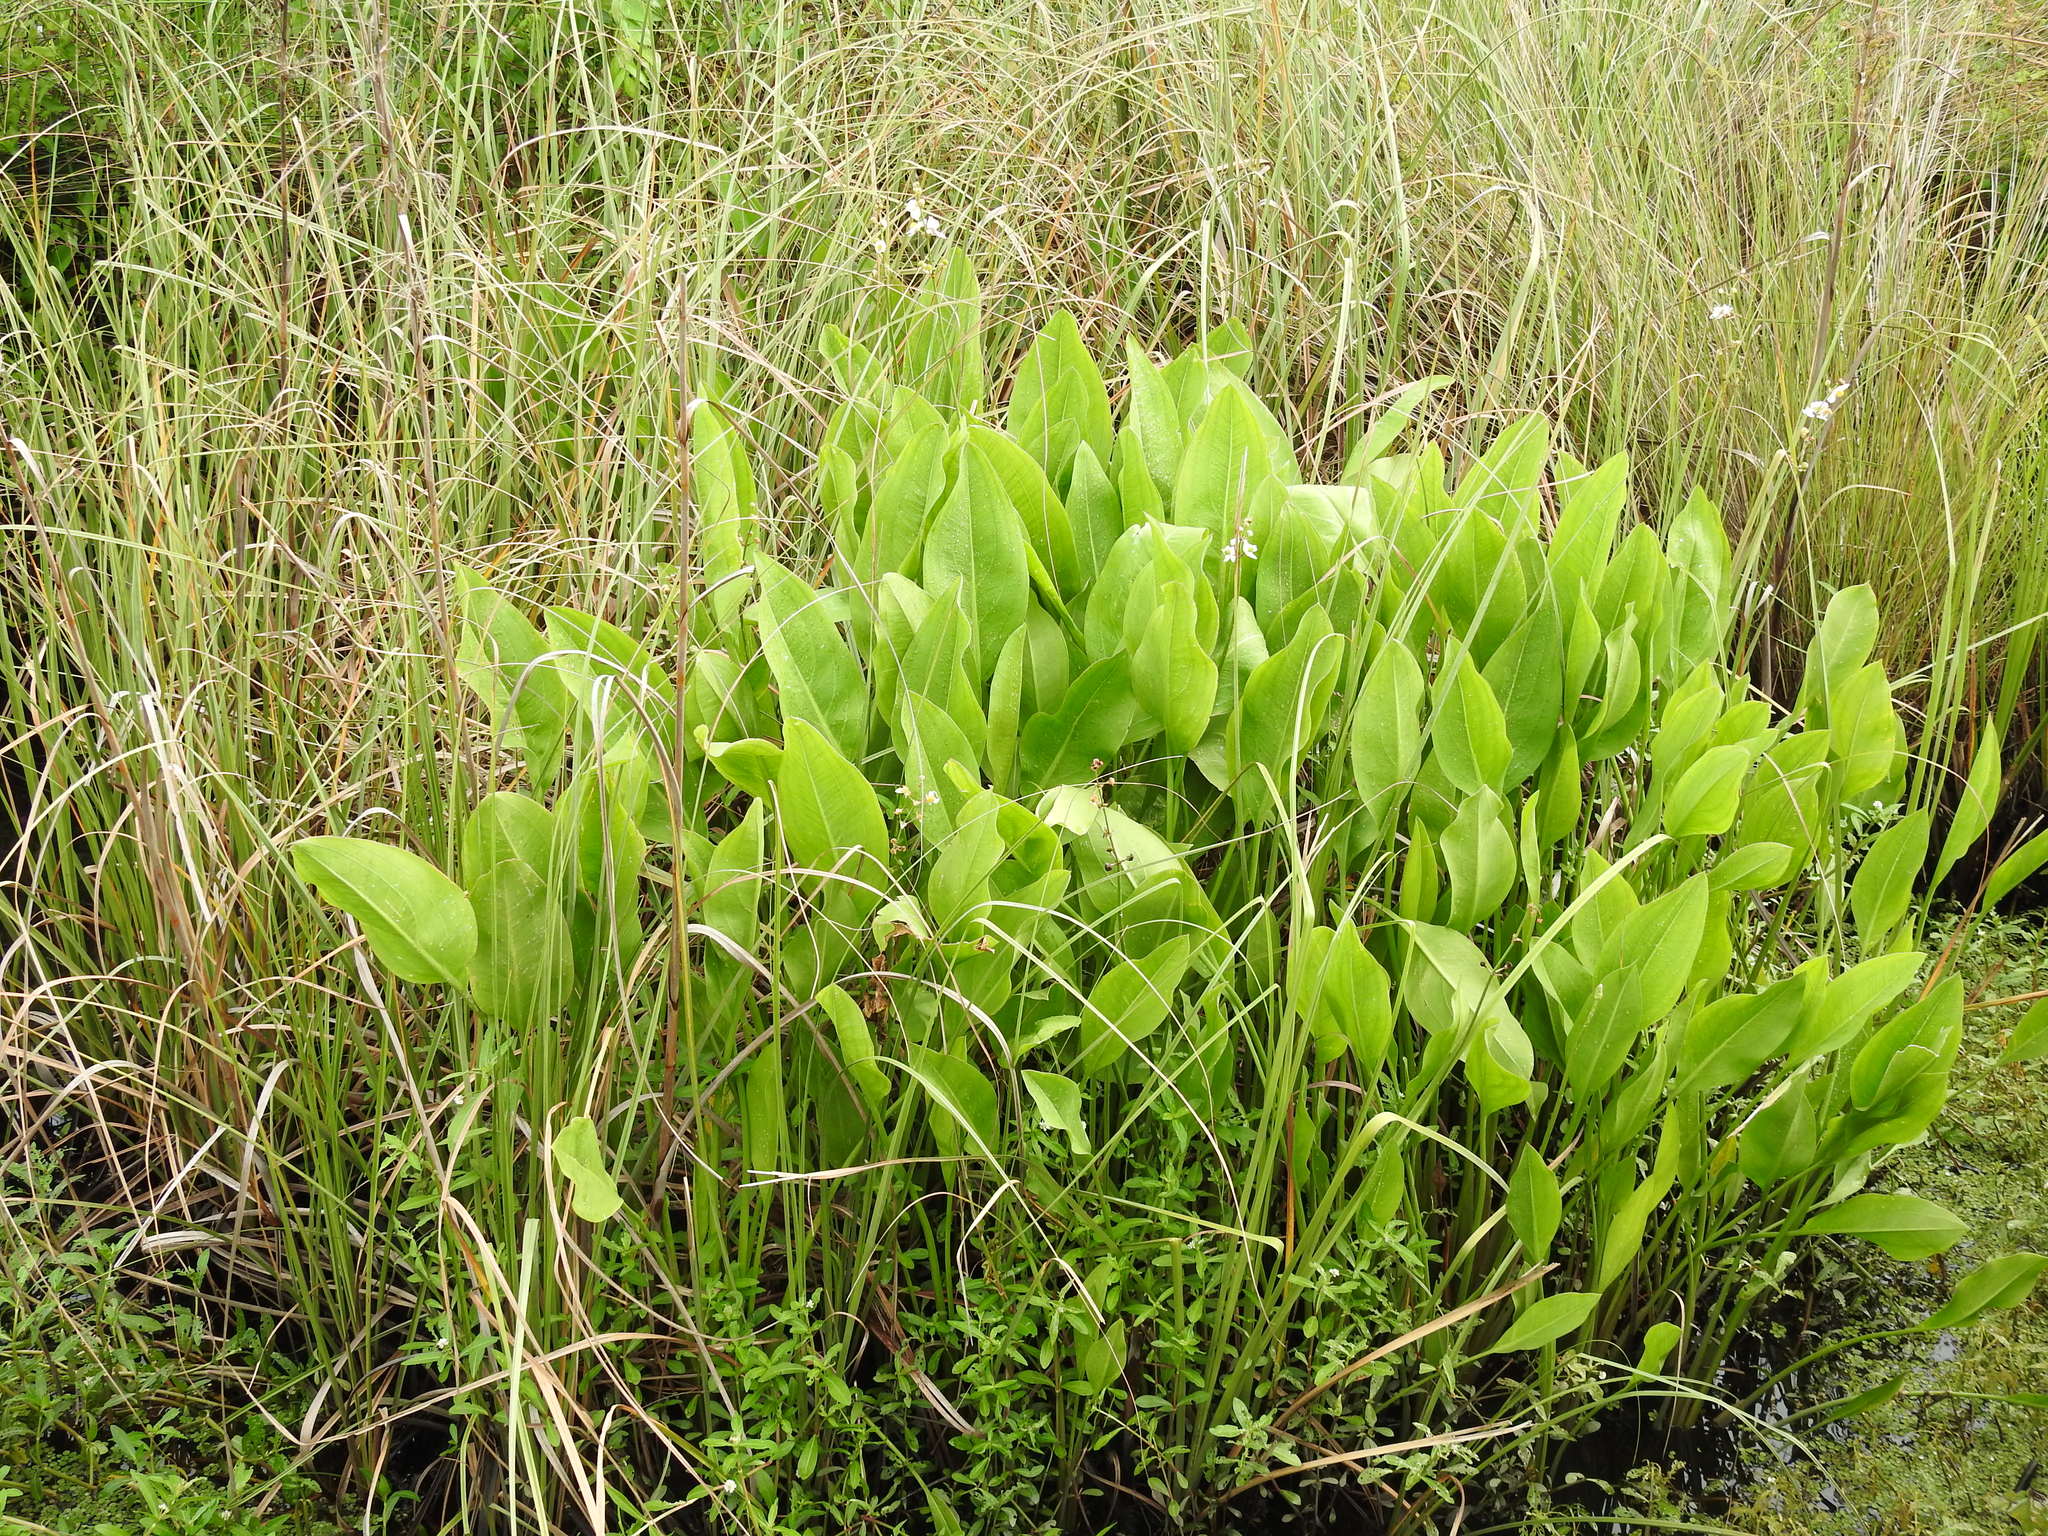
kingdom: Plantae
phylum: Tracheophyta
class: Liliopsida
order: Alismatales
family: Alismataceae
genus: Sagittaria
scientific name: Sagittaria lancifolia
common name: Lance-leaf arrowhead
